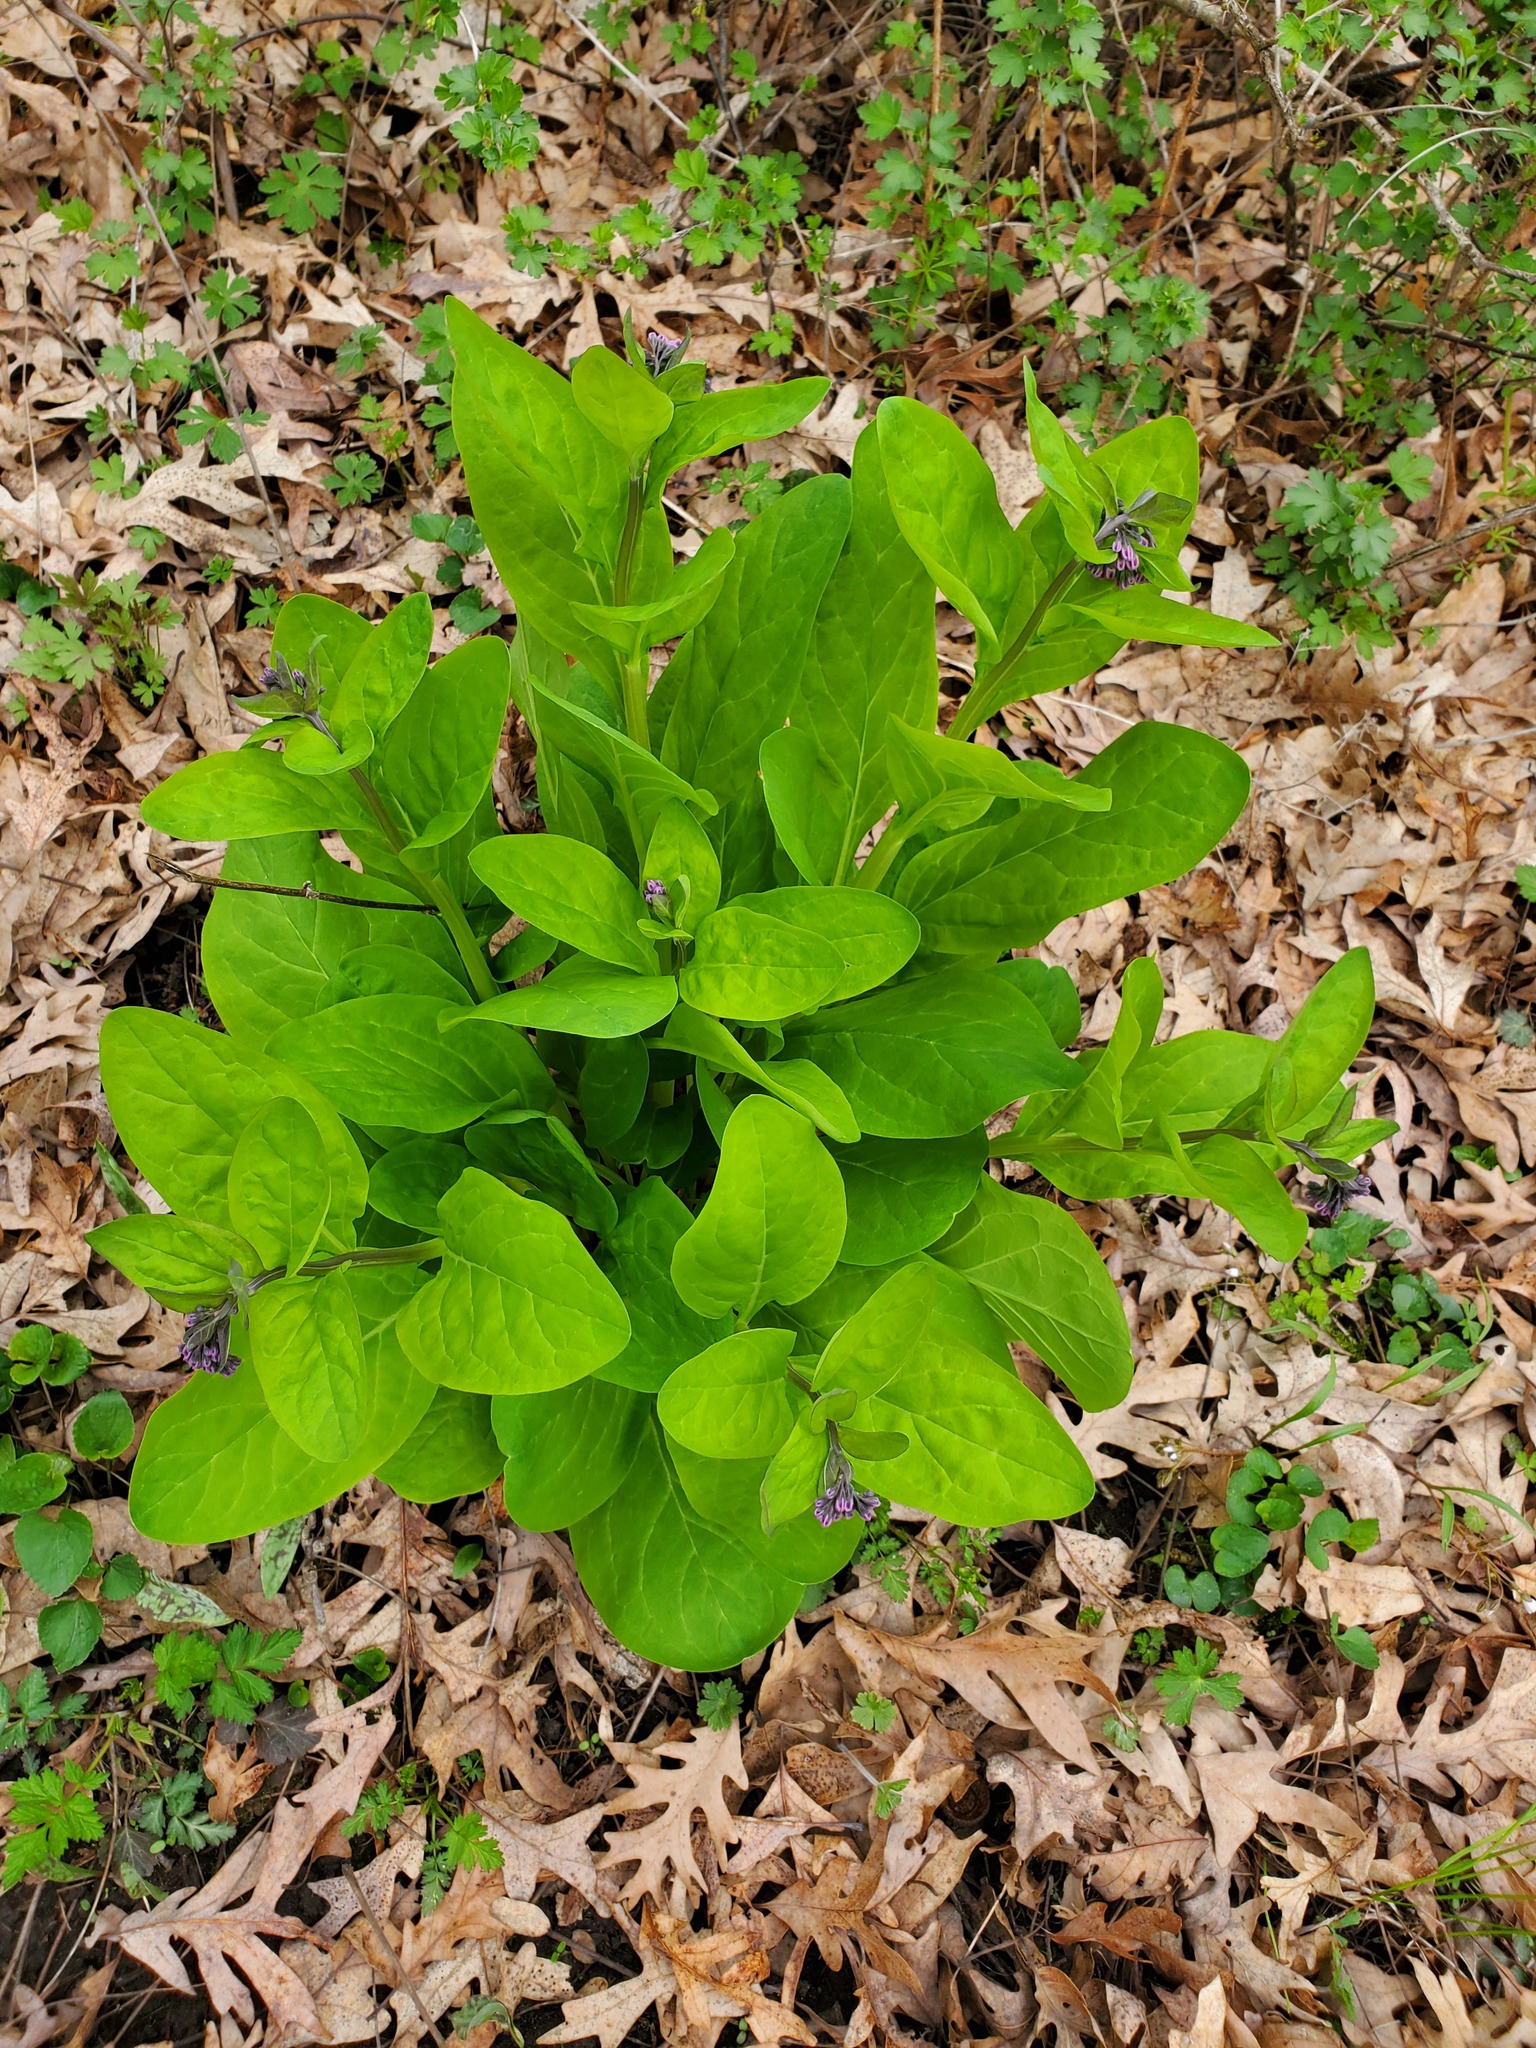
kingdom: Plantae
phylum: Tracheophyta
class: Magnoliopsida
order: Boraginales
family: Boraginaceae
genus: Mertensia
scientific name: Mertensia virginica
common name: Virginia bluebells
